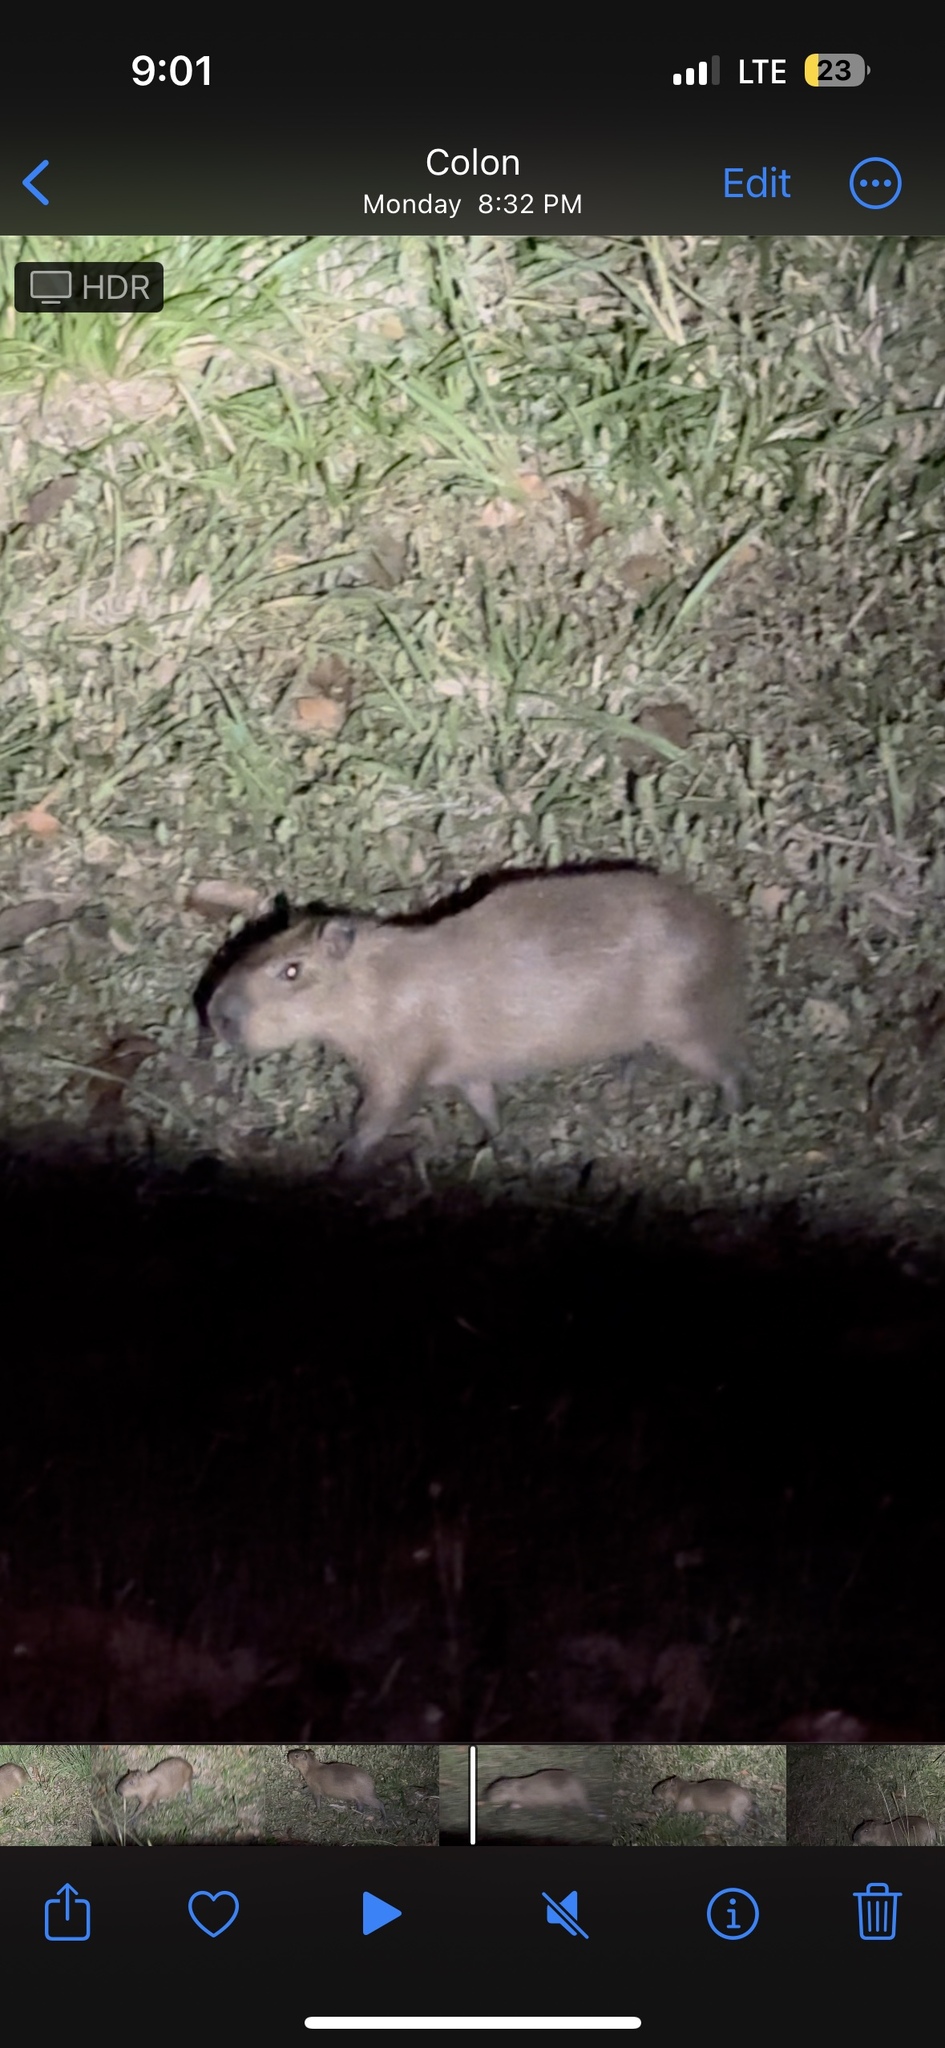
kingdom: Animalia
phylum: Chordata
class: Mammalia
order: Rodentia
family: Caviidae
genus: Hydrochoerus
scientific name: Hydrochoerus isthmius
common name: Lesser capybara
